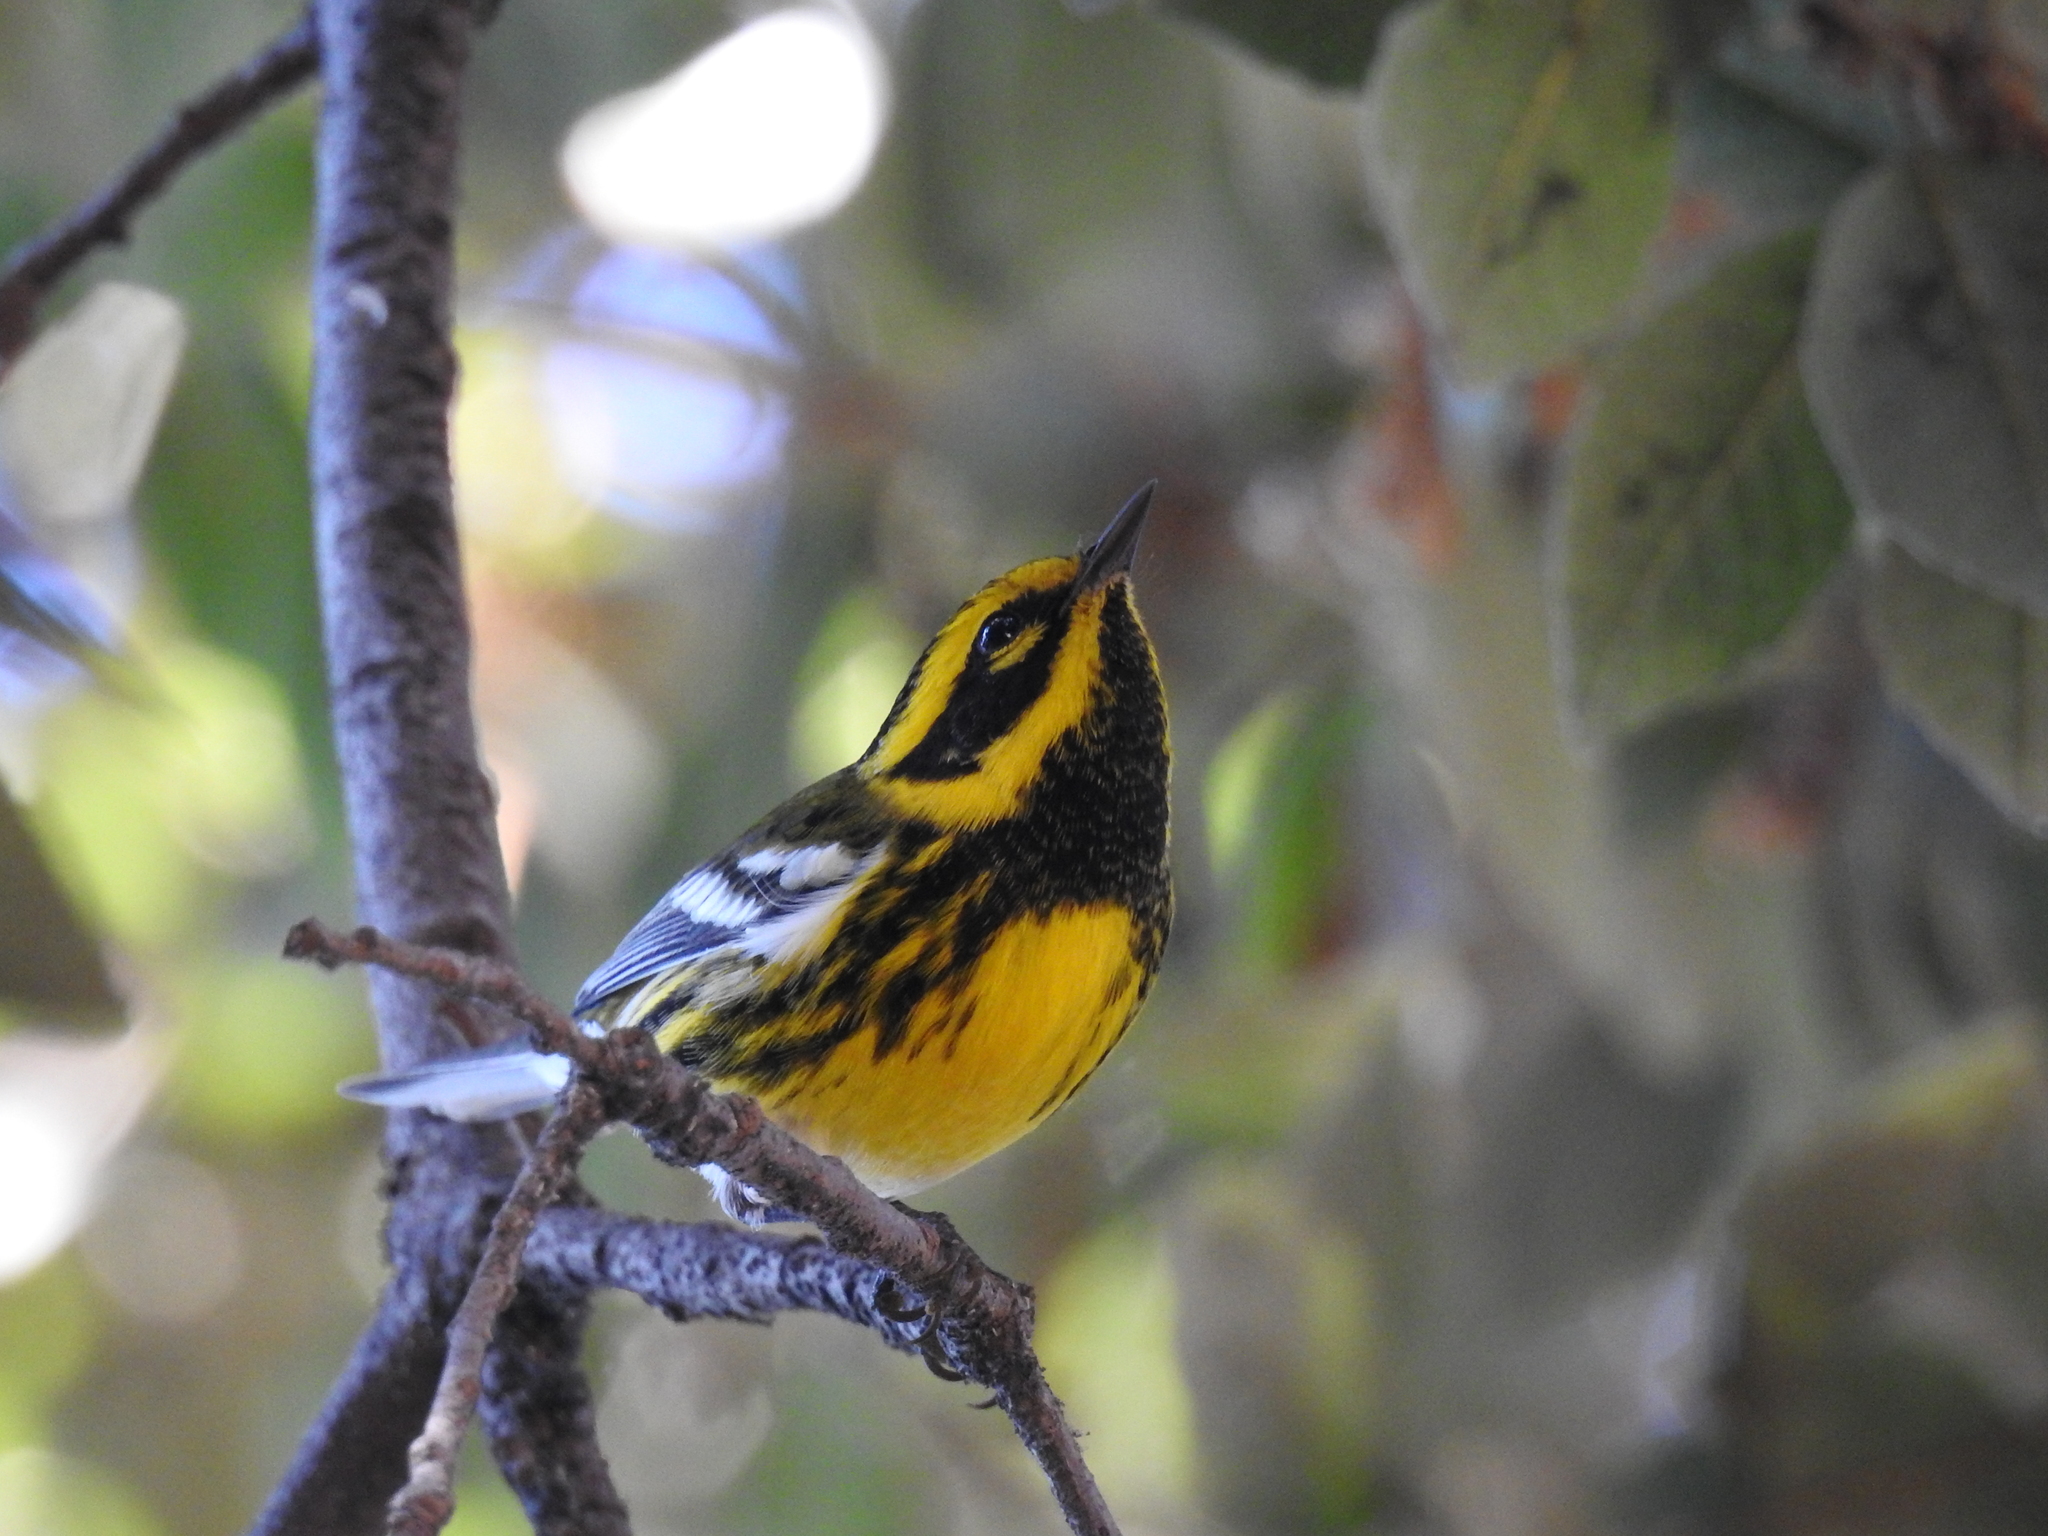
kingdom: Animalia
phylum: Chordata
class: Aves
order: Passeriformes
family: Parulidae
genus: Setophaga
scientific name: Setophaga townsendi
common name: Townsend's warbler
